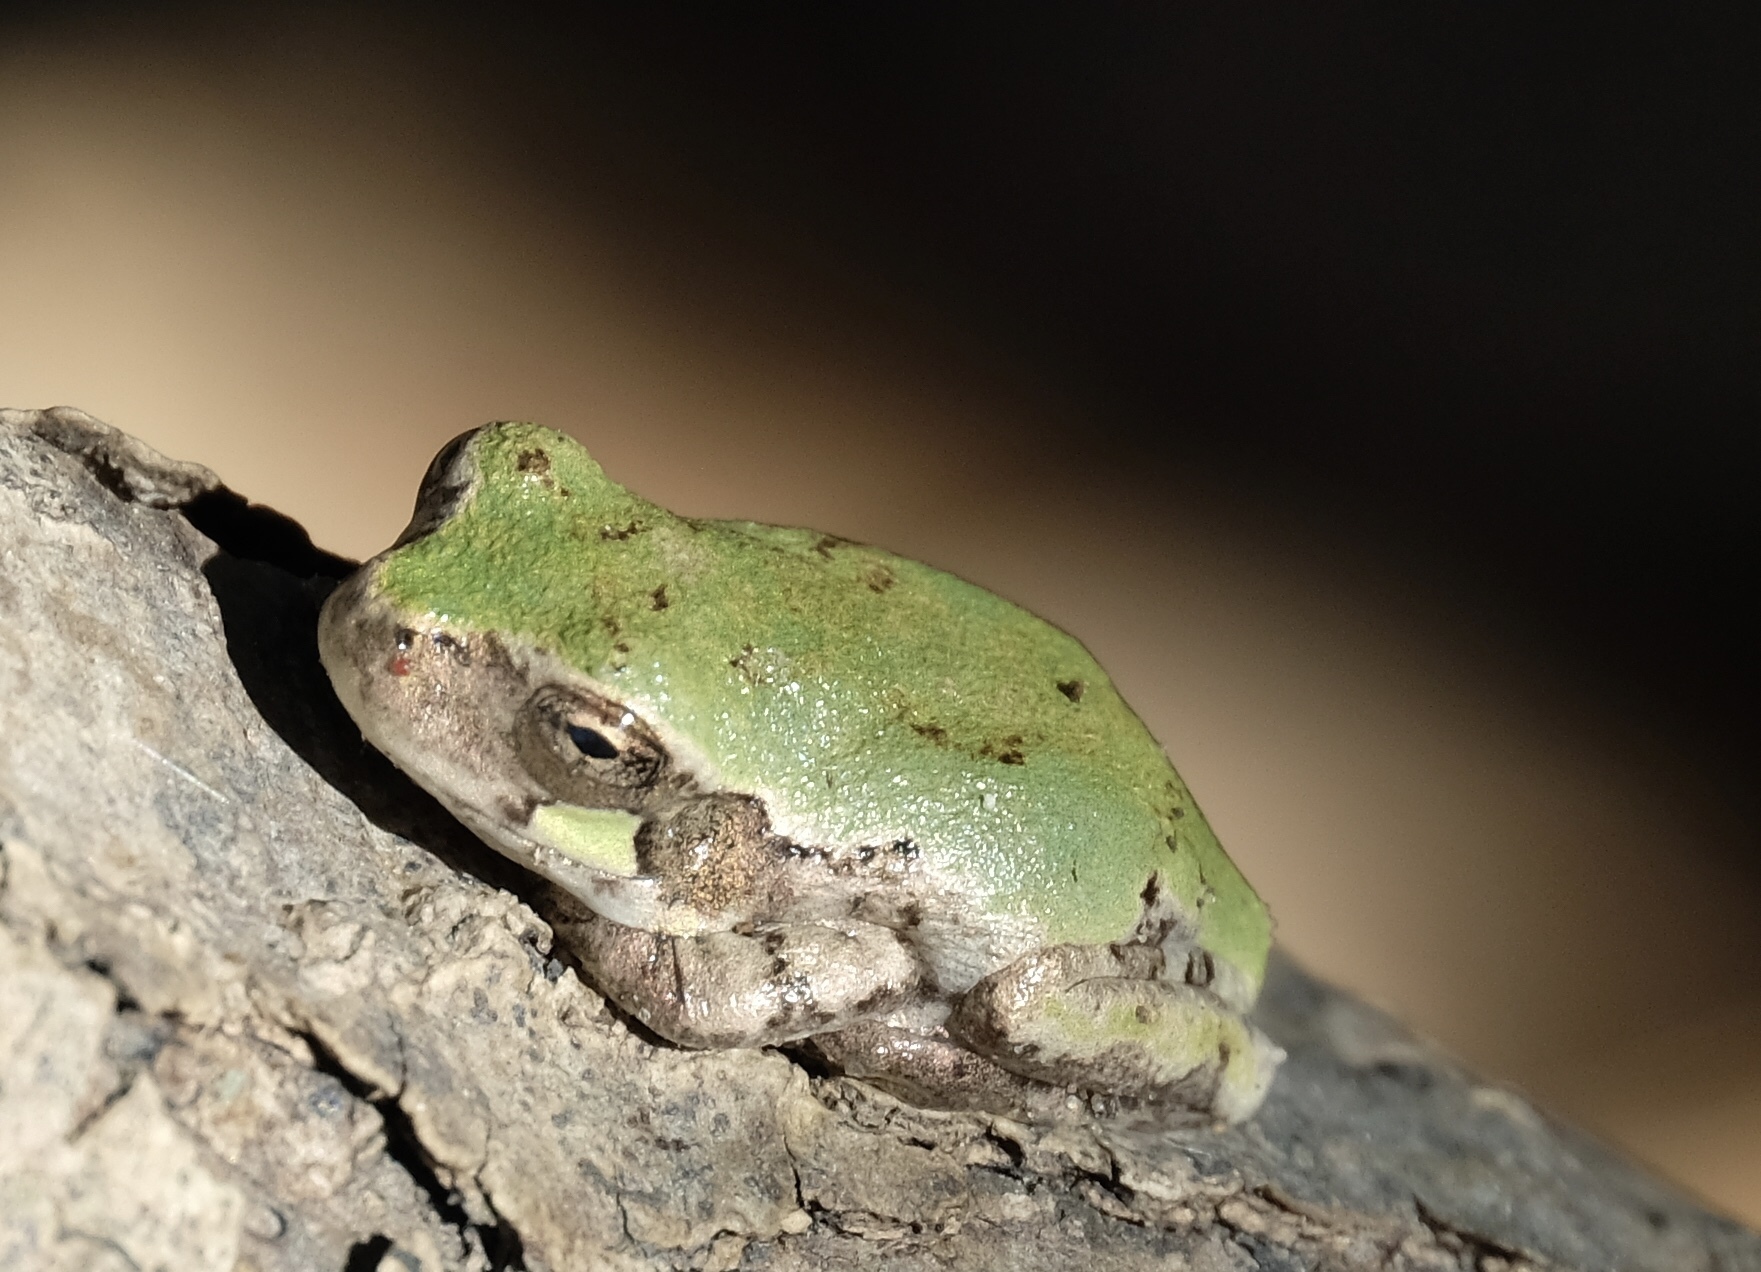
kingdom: Animalia
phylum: Chordata
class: Amphibia
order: Anura
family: Hylidae
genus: Dryophytes
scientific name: Dryophytes versicolor
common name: Gray treefrog
